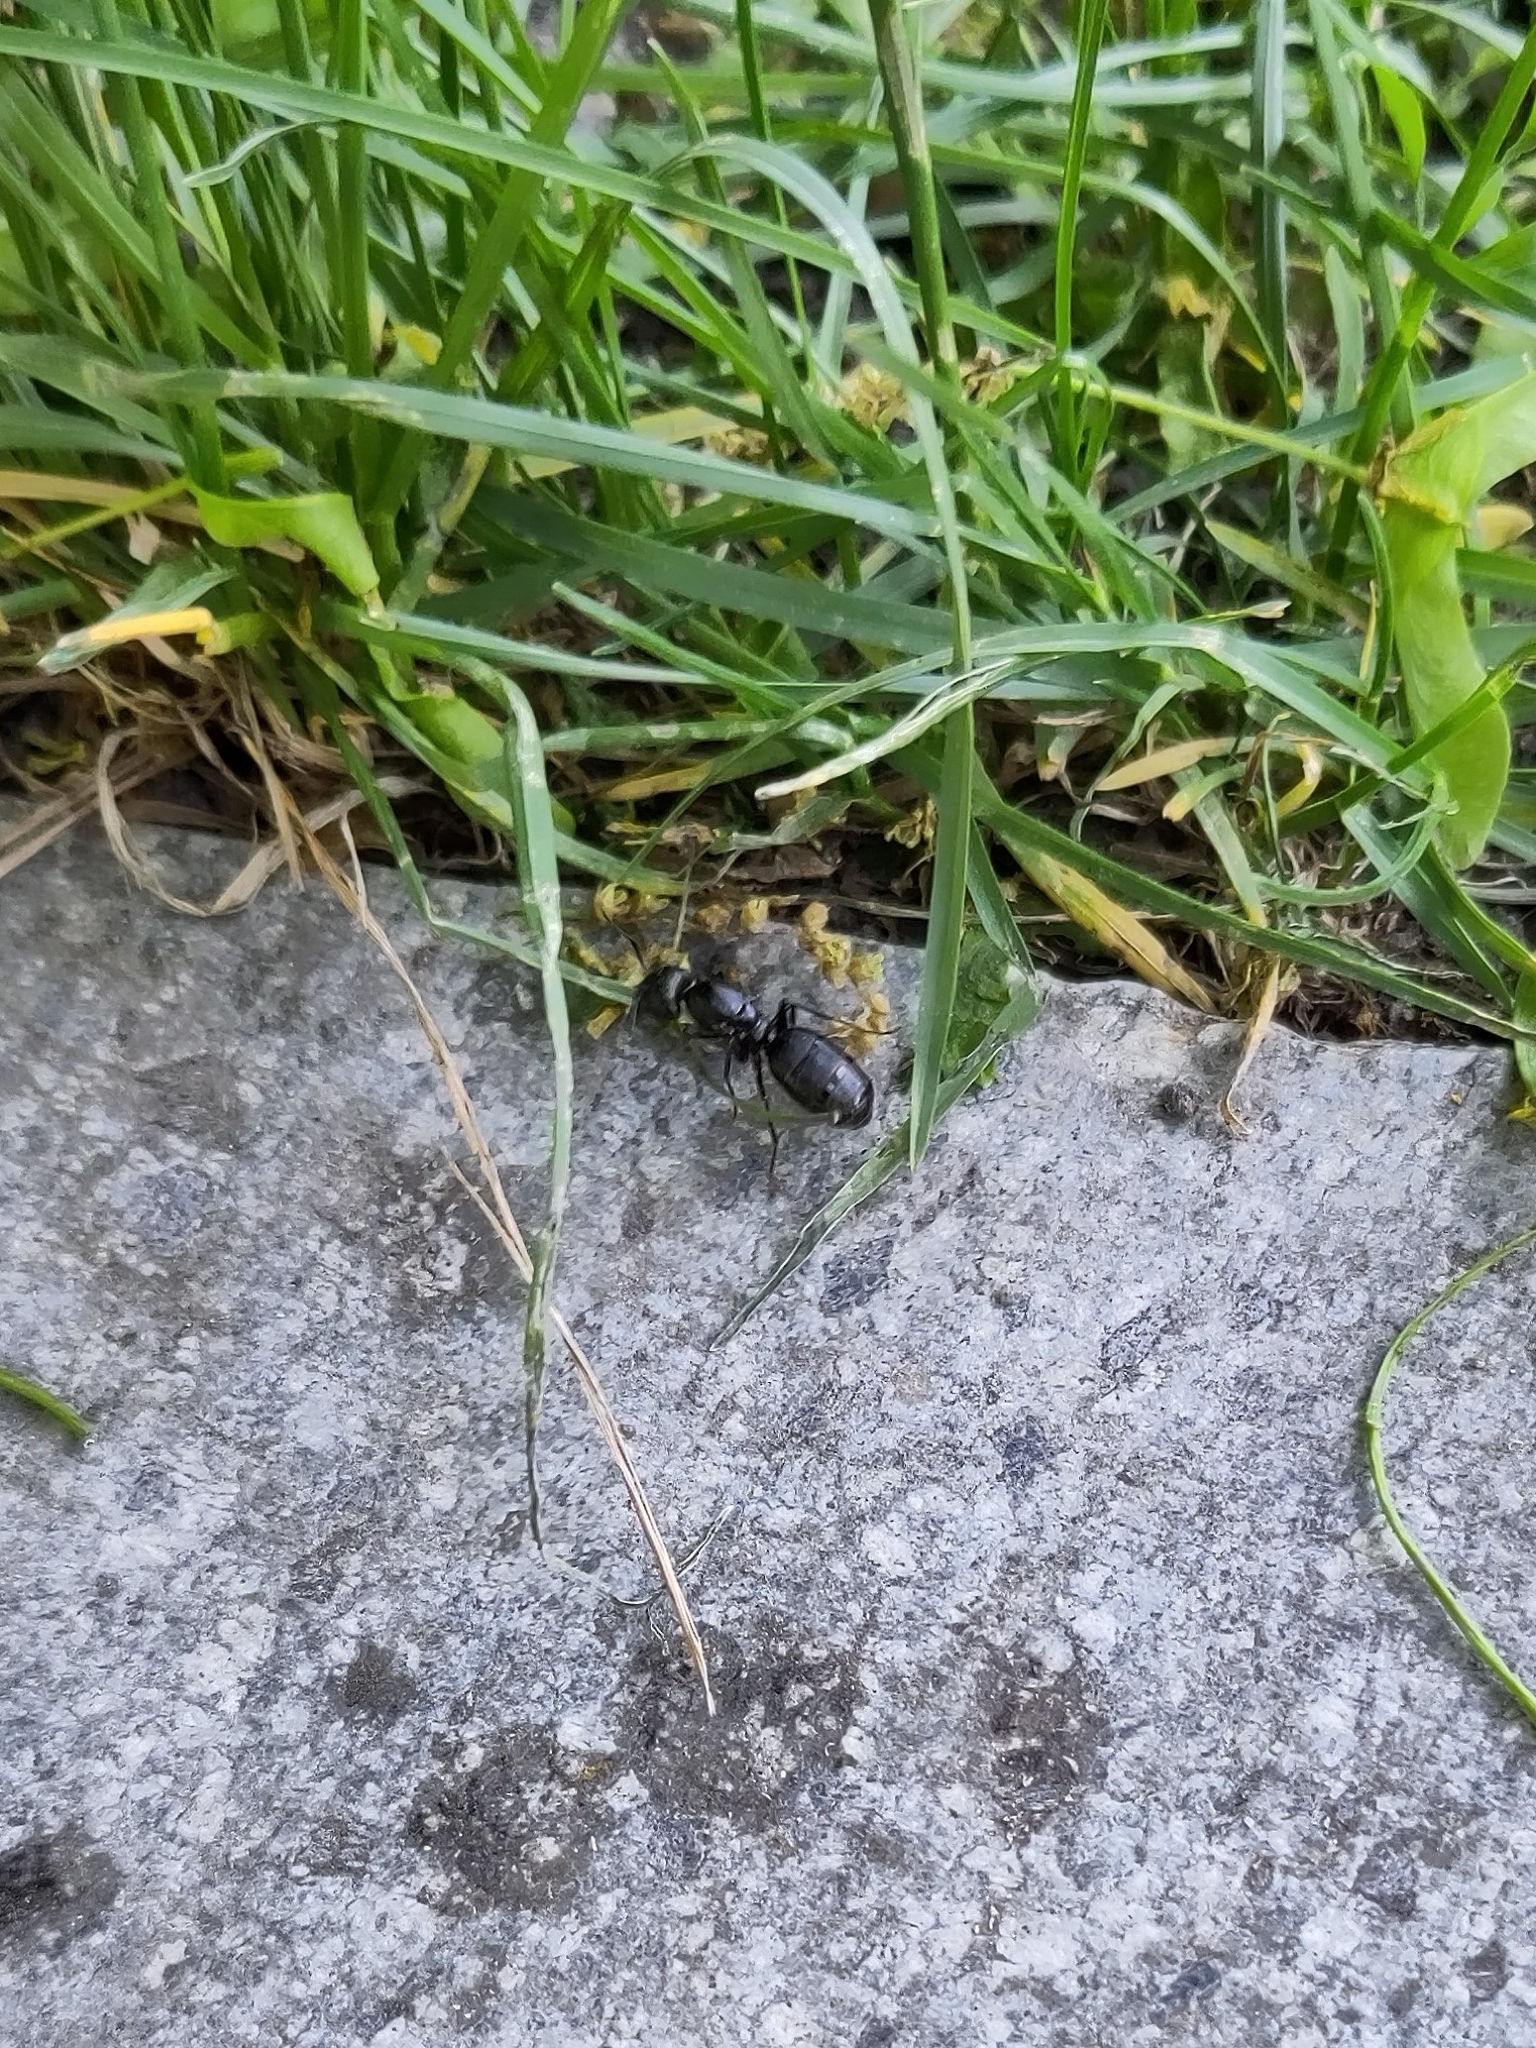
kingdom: Animalia
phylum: Arthropoda
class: Insecta
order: Hymenoptera
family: Formicidae
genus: Camponotus
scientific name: Camponotus pennsylvanicus
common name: Black carpenter ant
